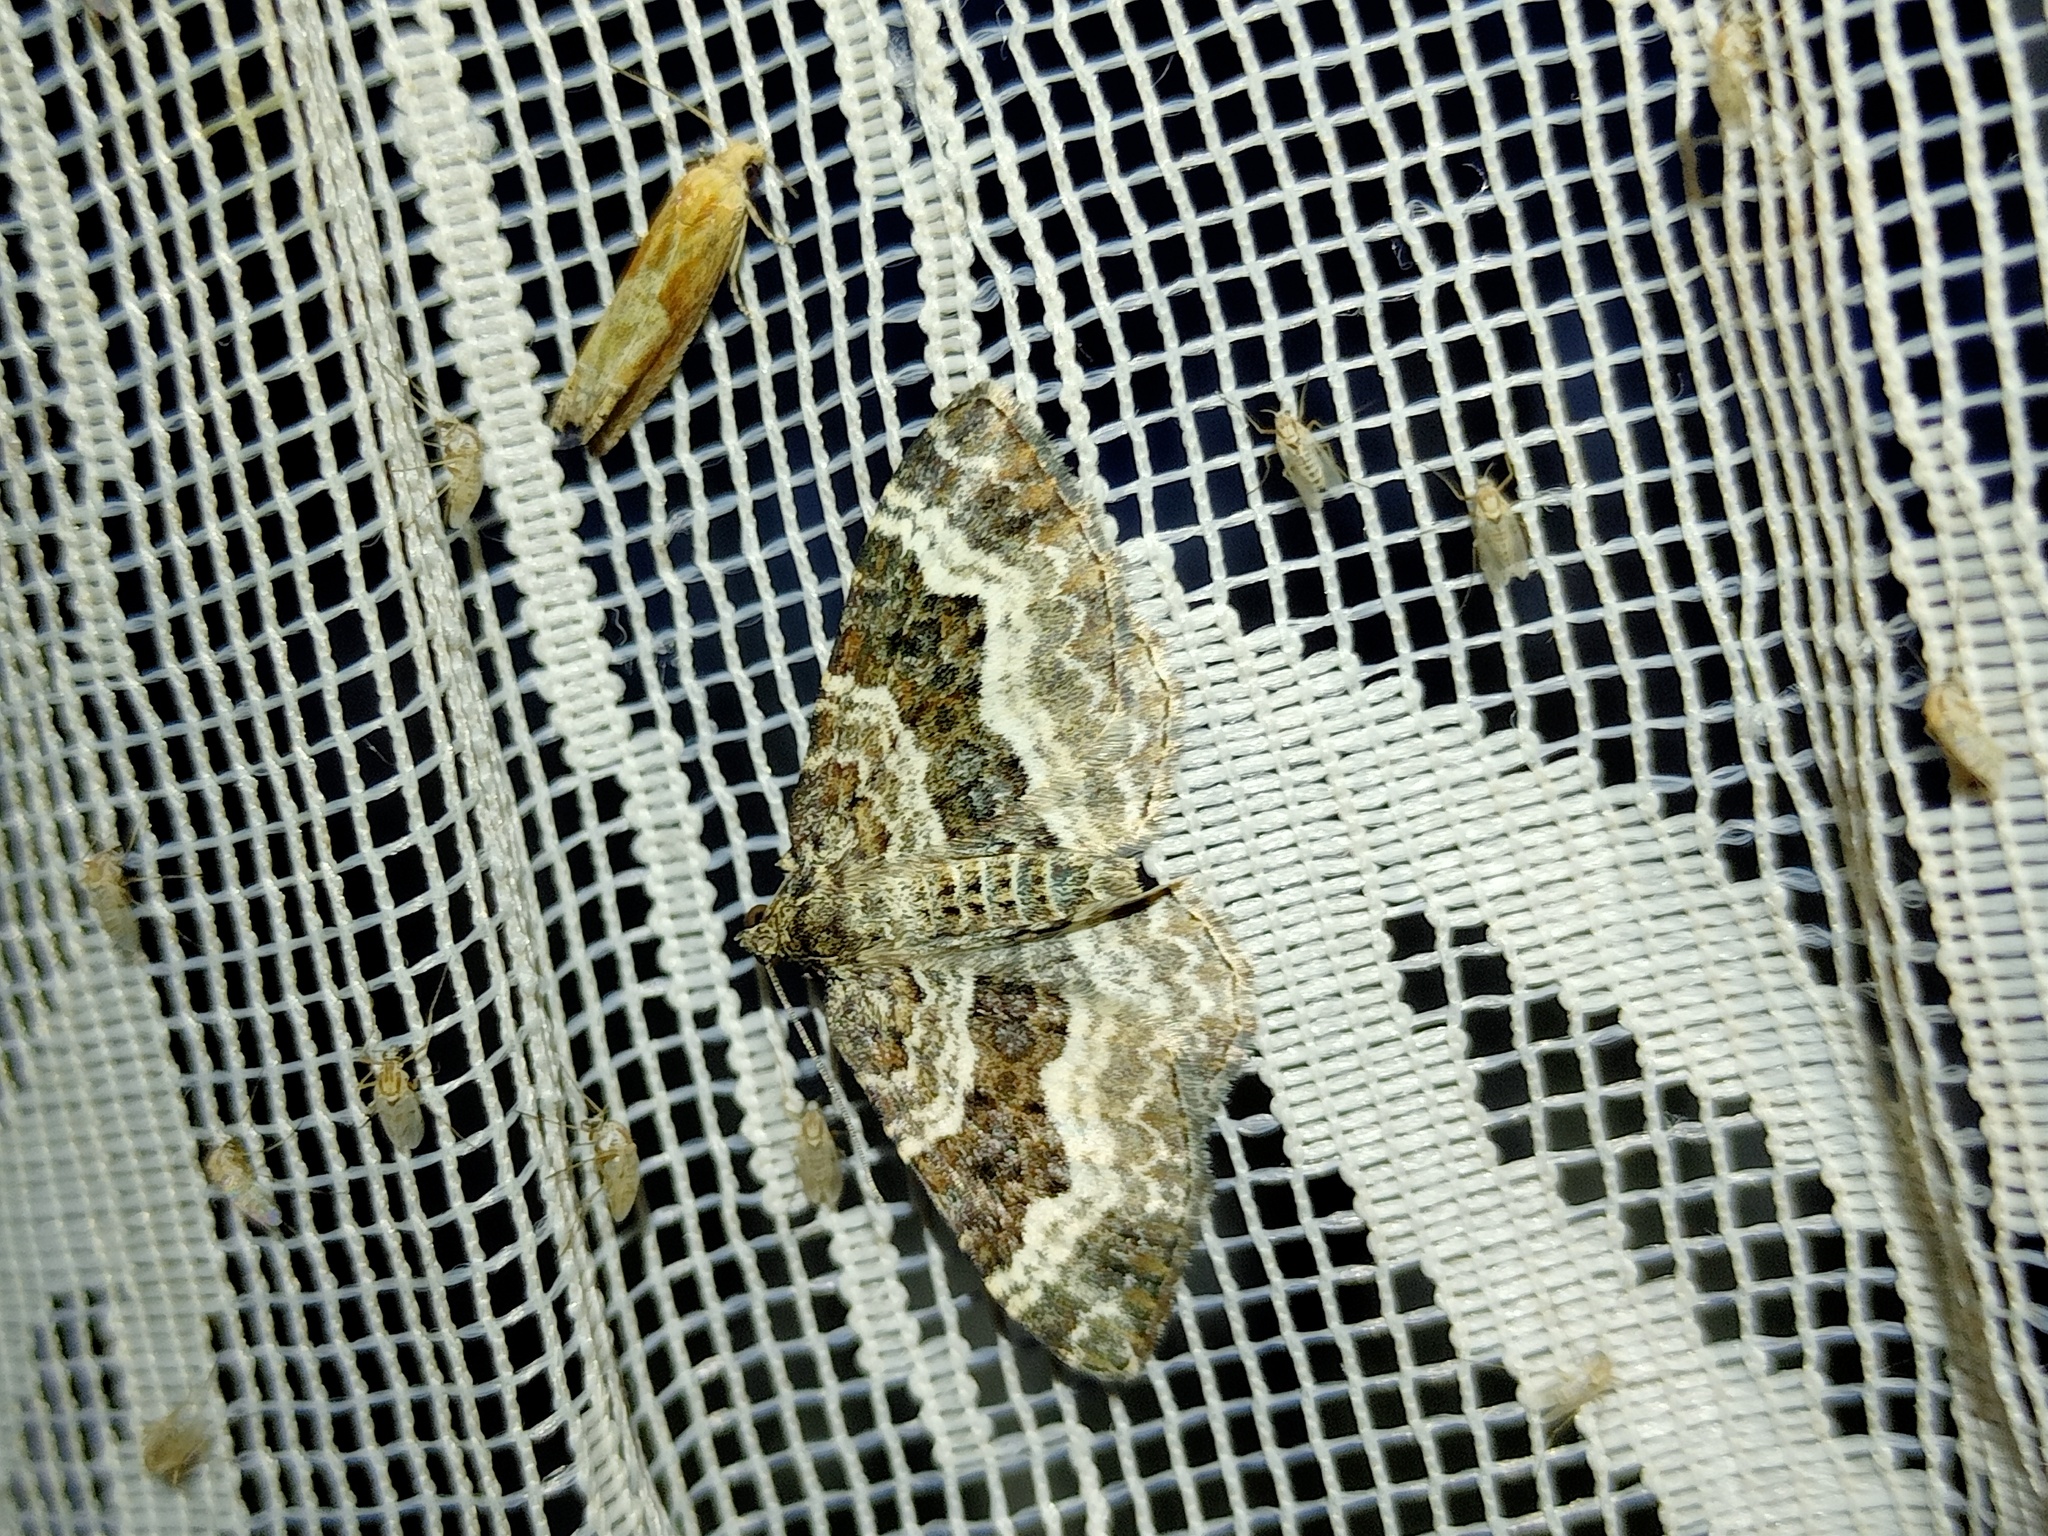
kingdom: Animalia
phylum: Arthropoda
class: Insecta
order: Lepidoptera
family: Geometridae
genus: Epirrhoe
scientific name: Epirrhoe alternata
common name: Common carpet
